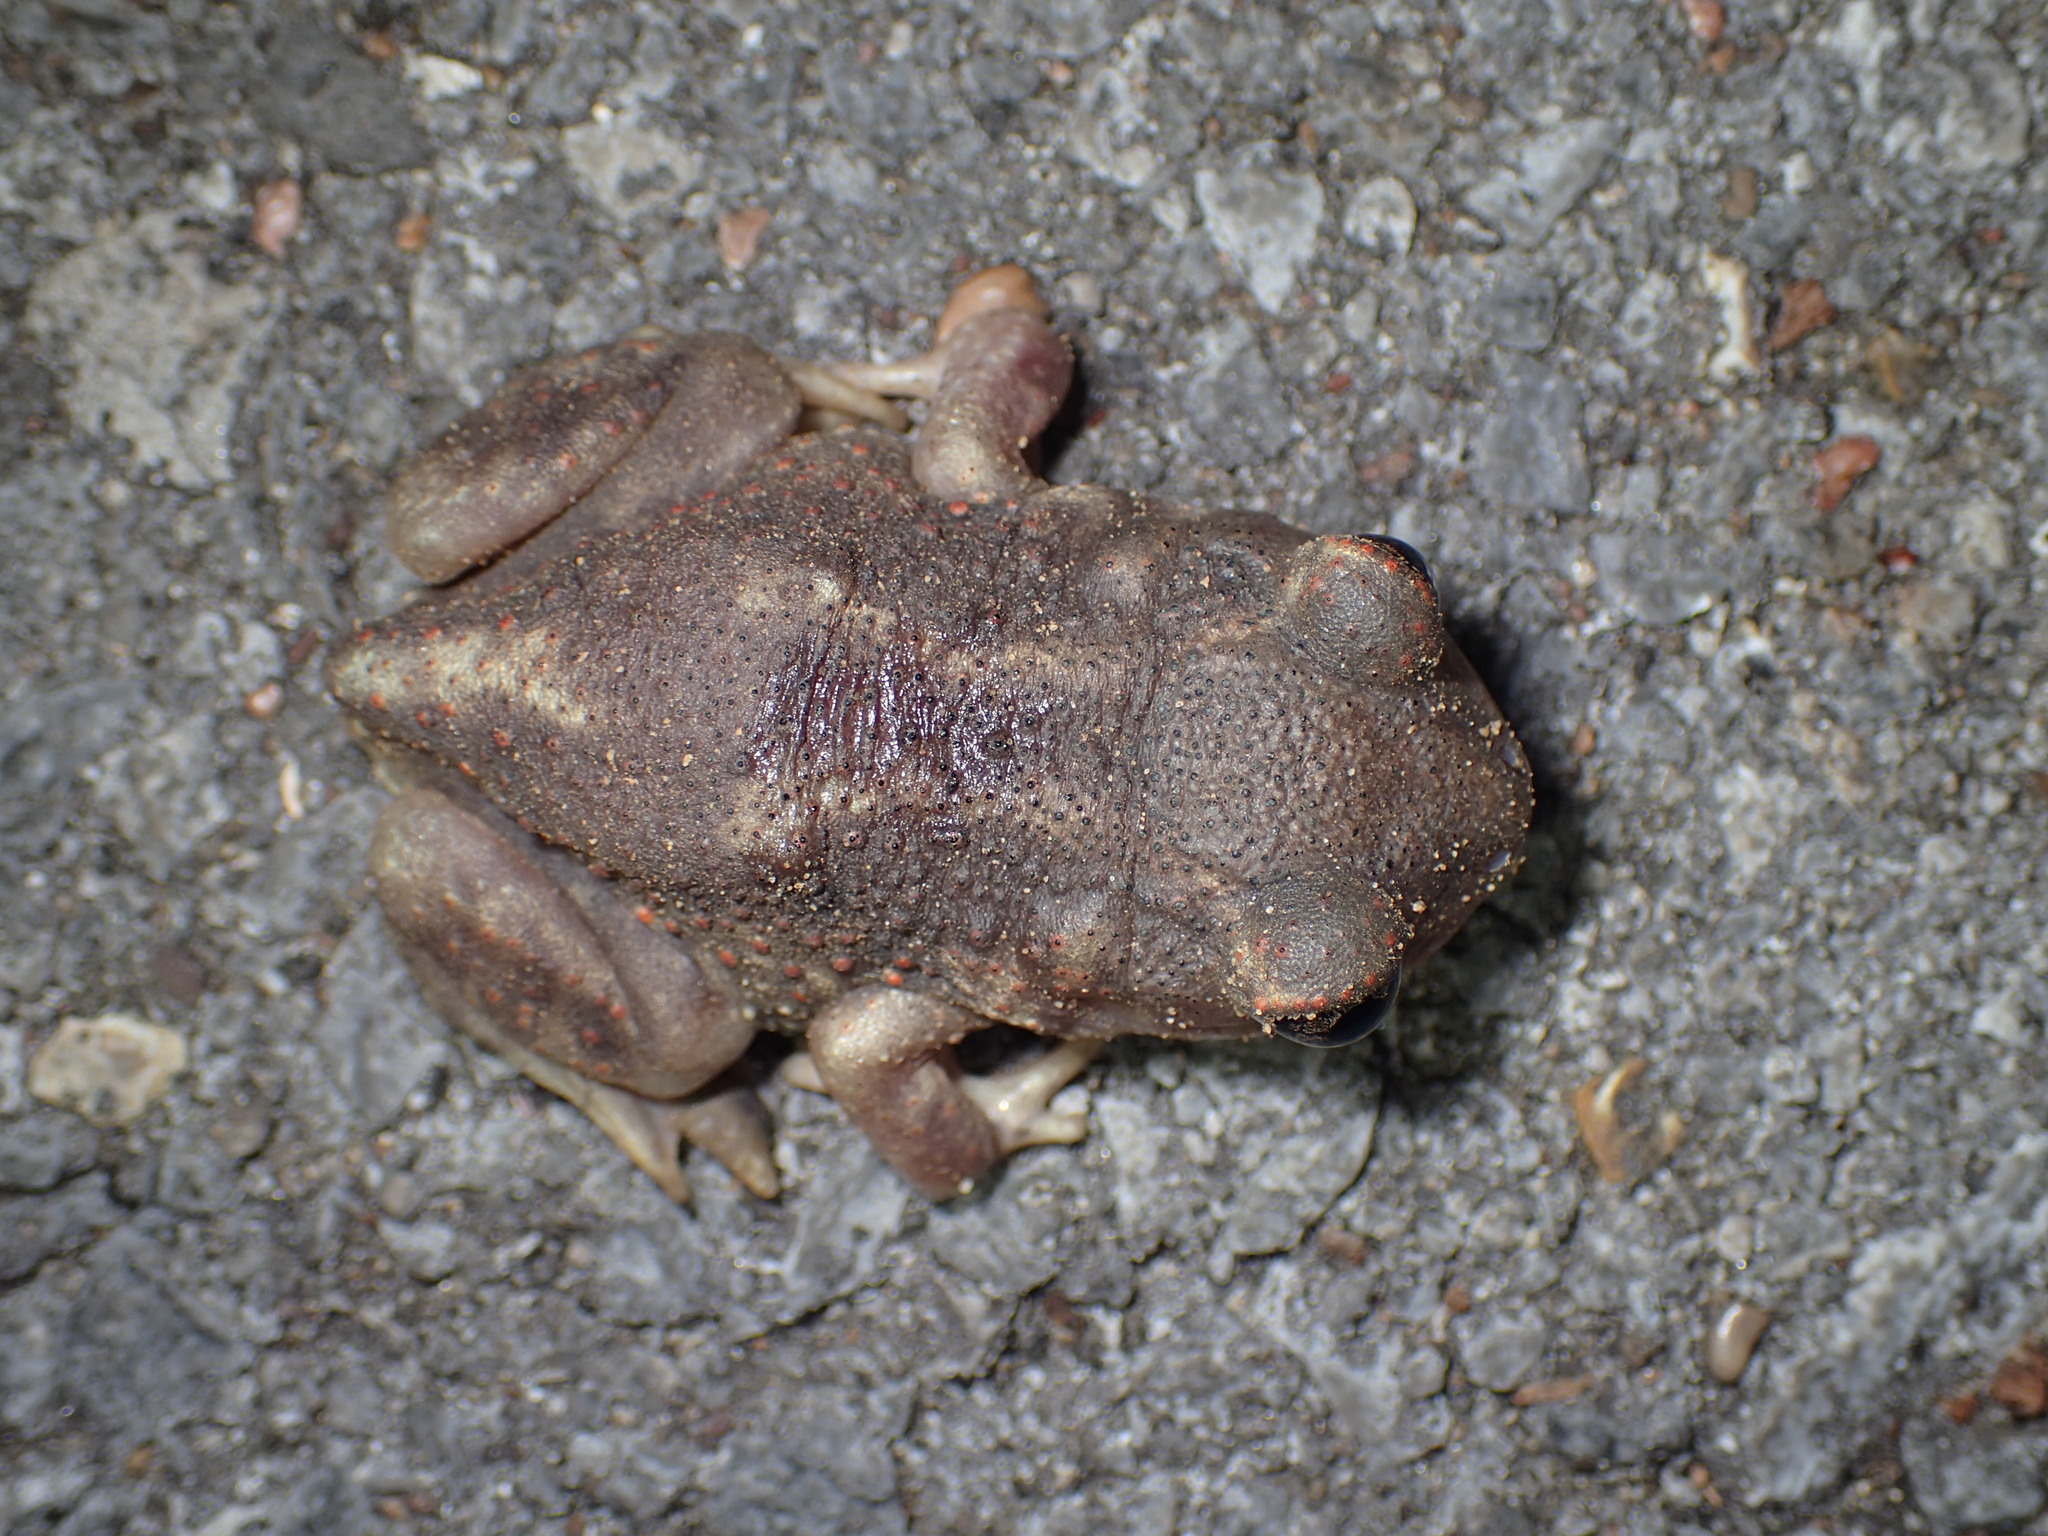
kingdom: Animalia
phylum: Chordata
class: Amphibia
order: Anura
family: Scaphiopodidae
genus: Scaphiopus
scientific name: Scaphiopus holbrookii
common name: Eastern spadefoot toad
